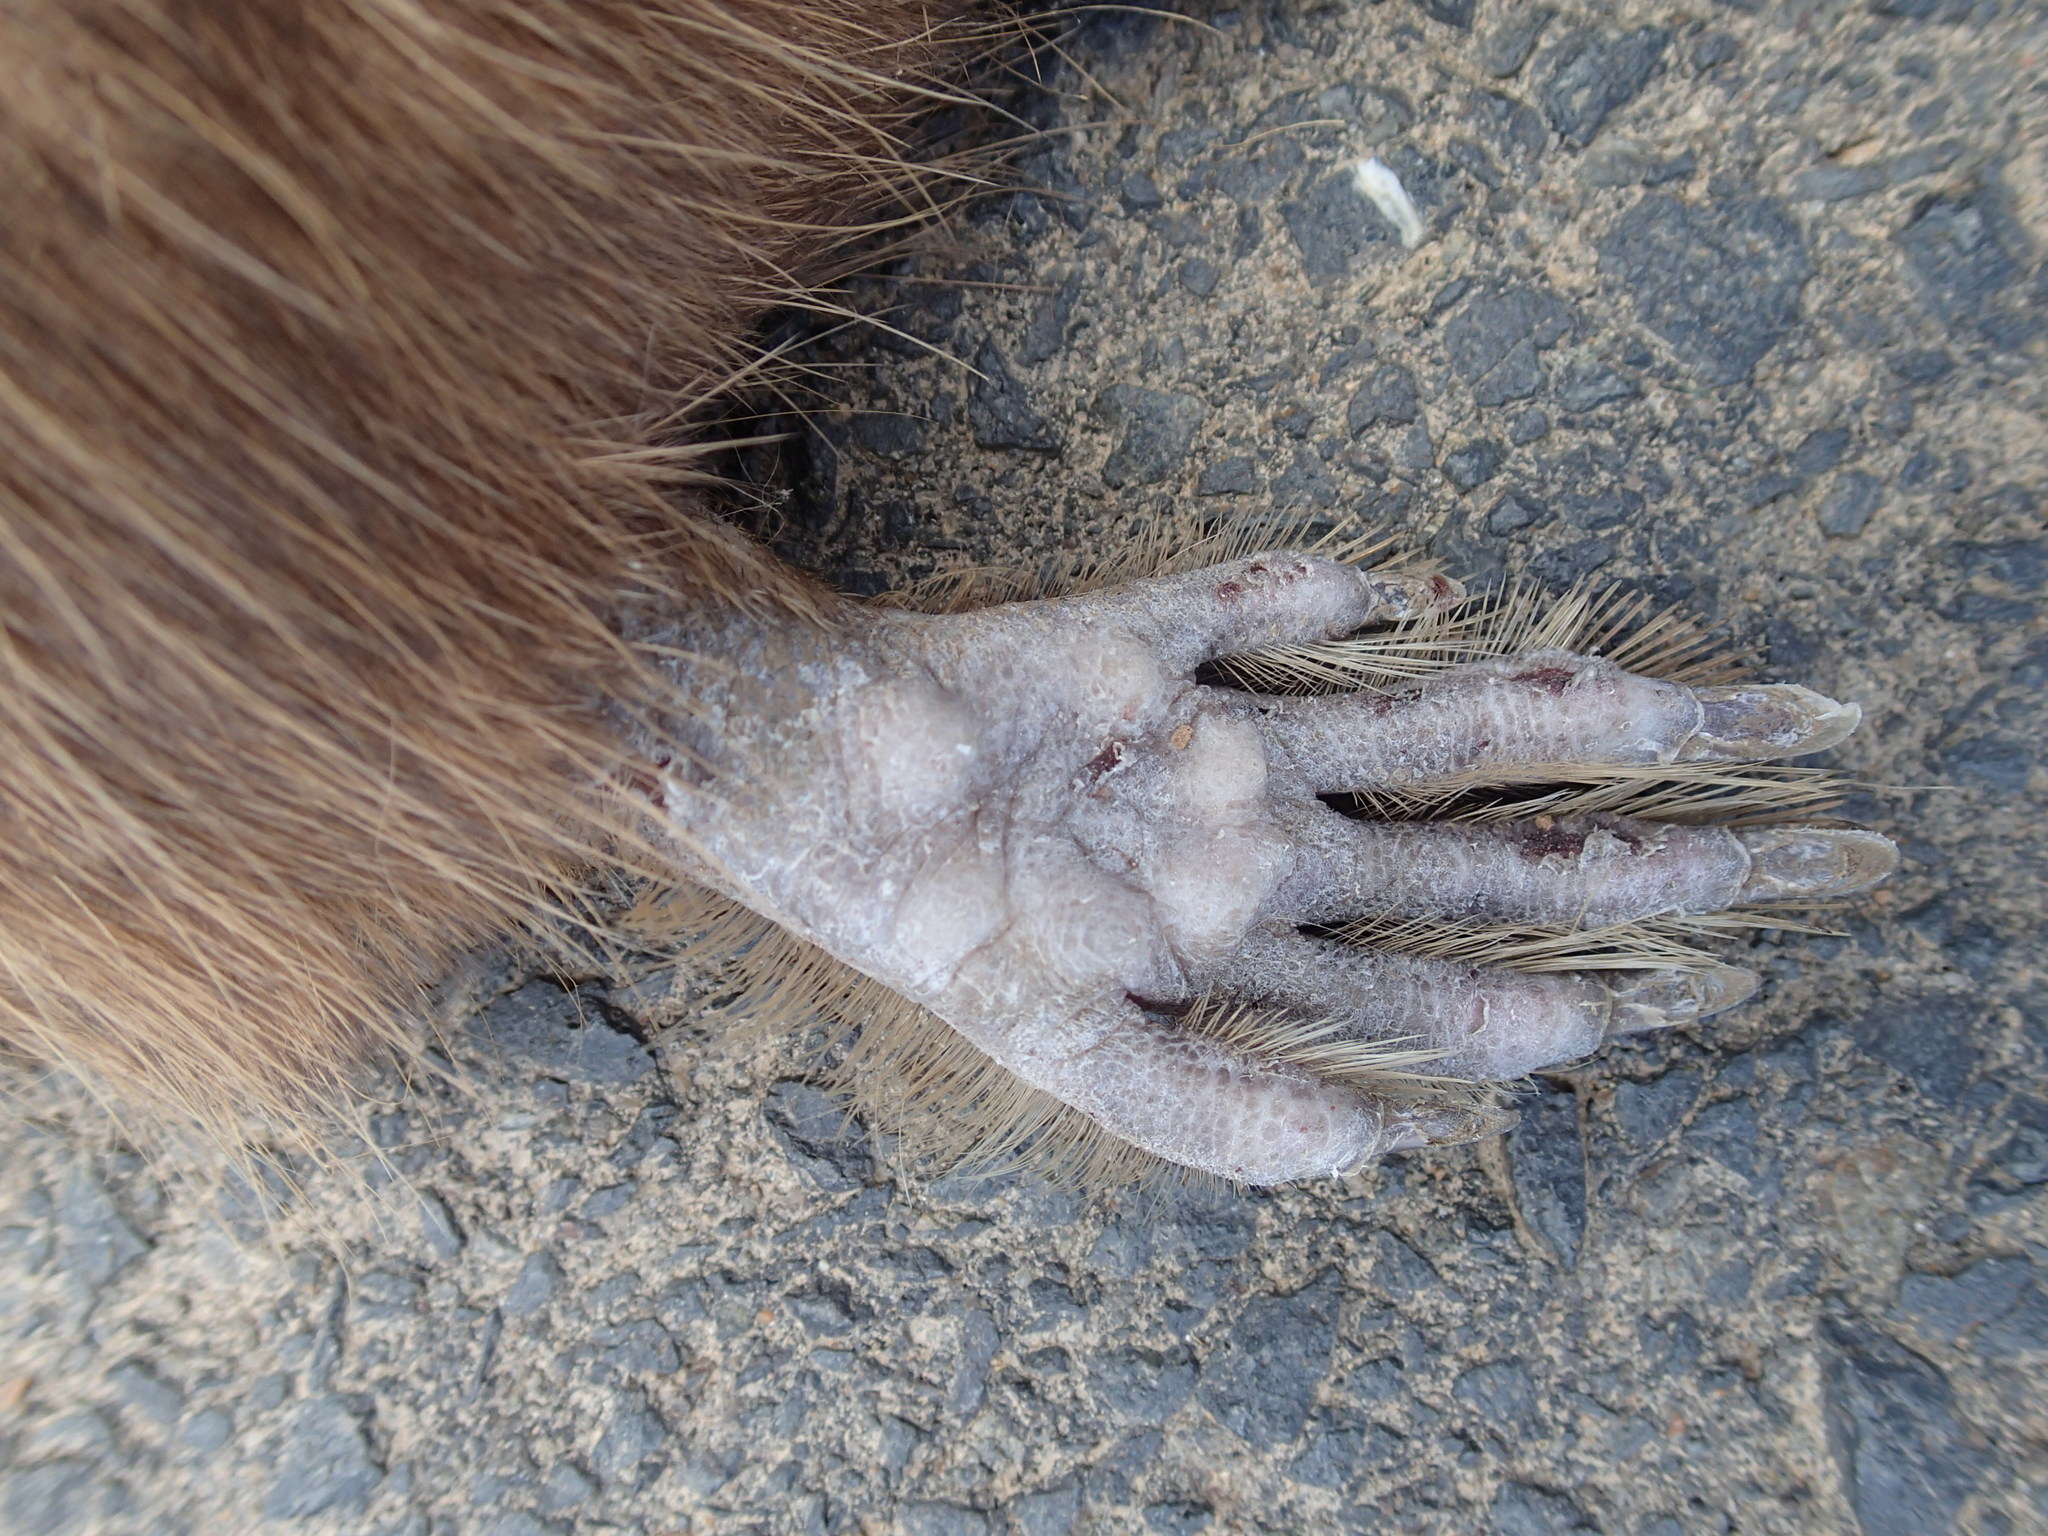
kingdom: Animalia
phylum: Chordata
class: Mammalia
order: Rodentia
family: Ctenomyidae
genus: Ctenomys
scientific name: Ctenomys conoveri
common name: Chacoan tuco-tuco
